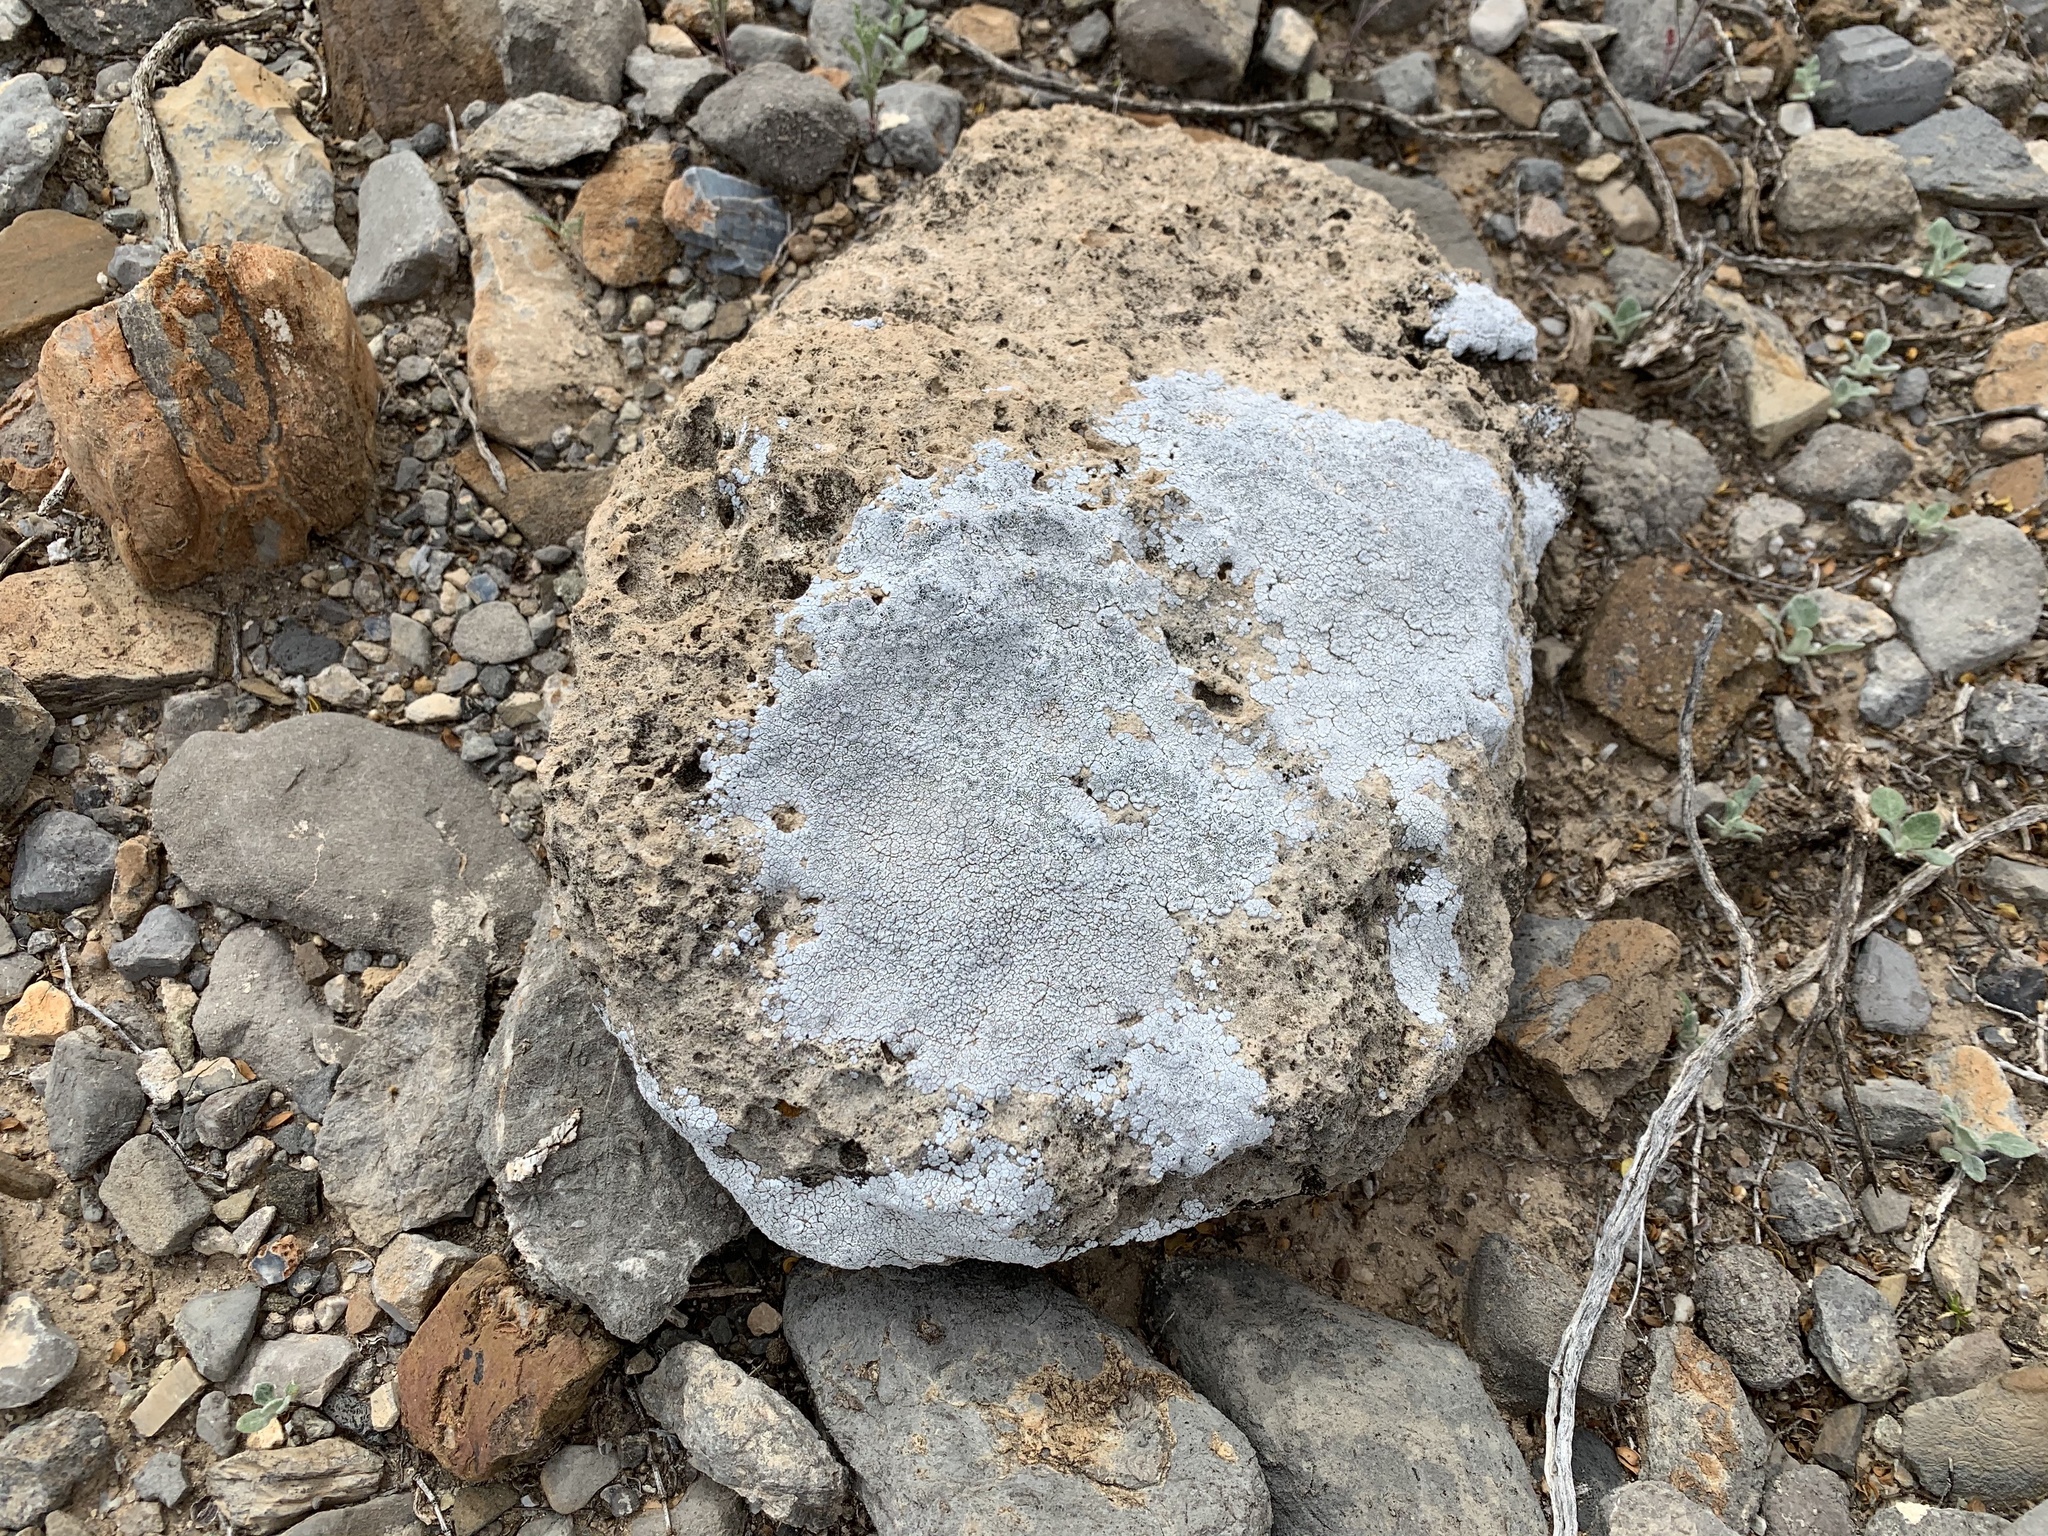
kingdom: Fungi
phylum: Ascomycota
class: Lecanoromycetes
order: Pertusariales
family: Megasporaceae
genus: Aspicilia
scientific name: Aspicilia cinerea
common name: Cinder lichen
